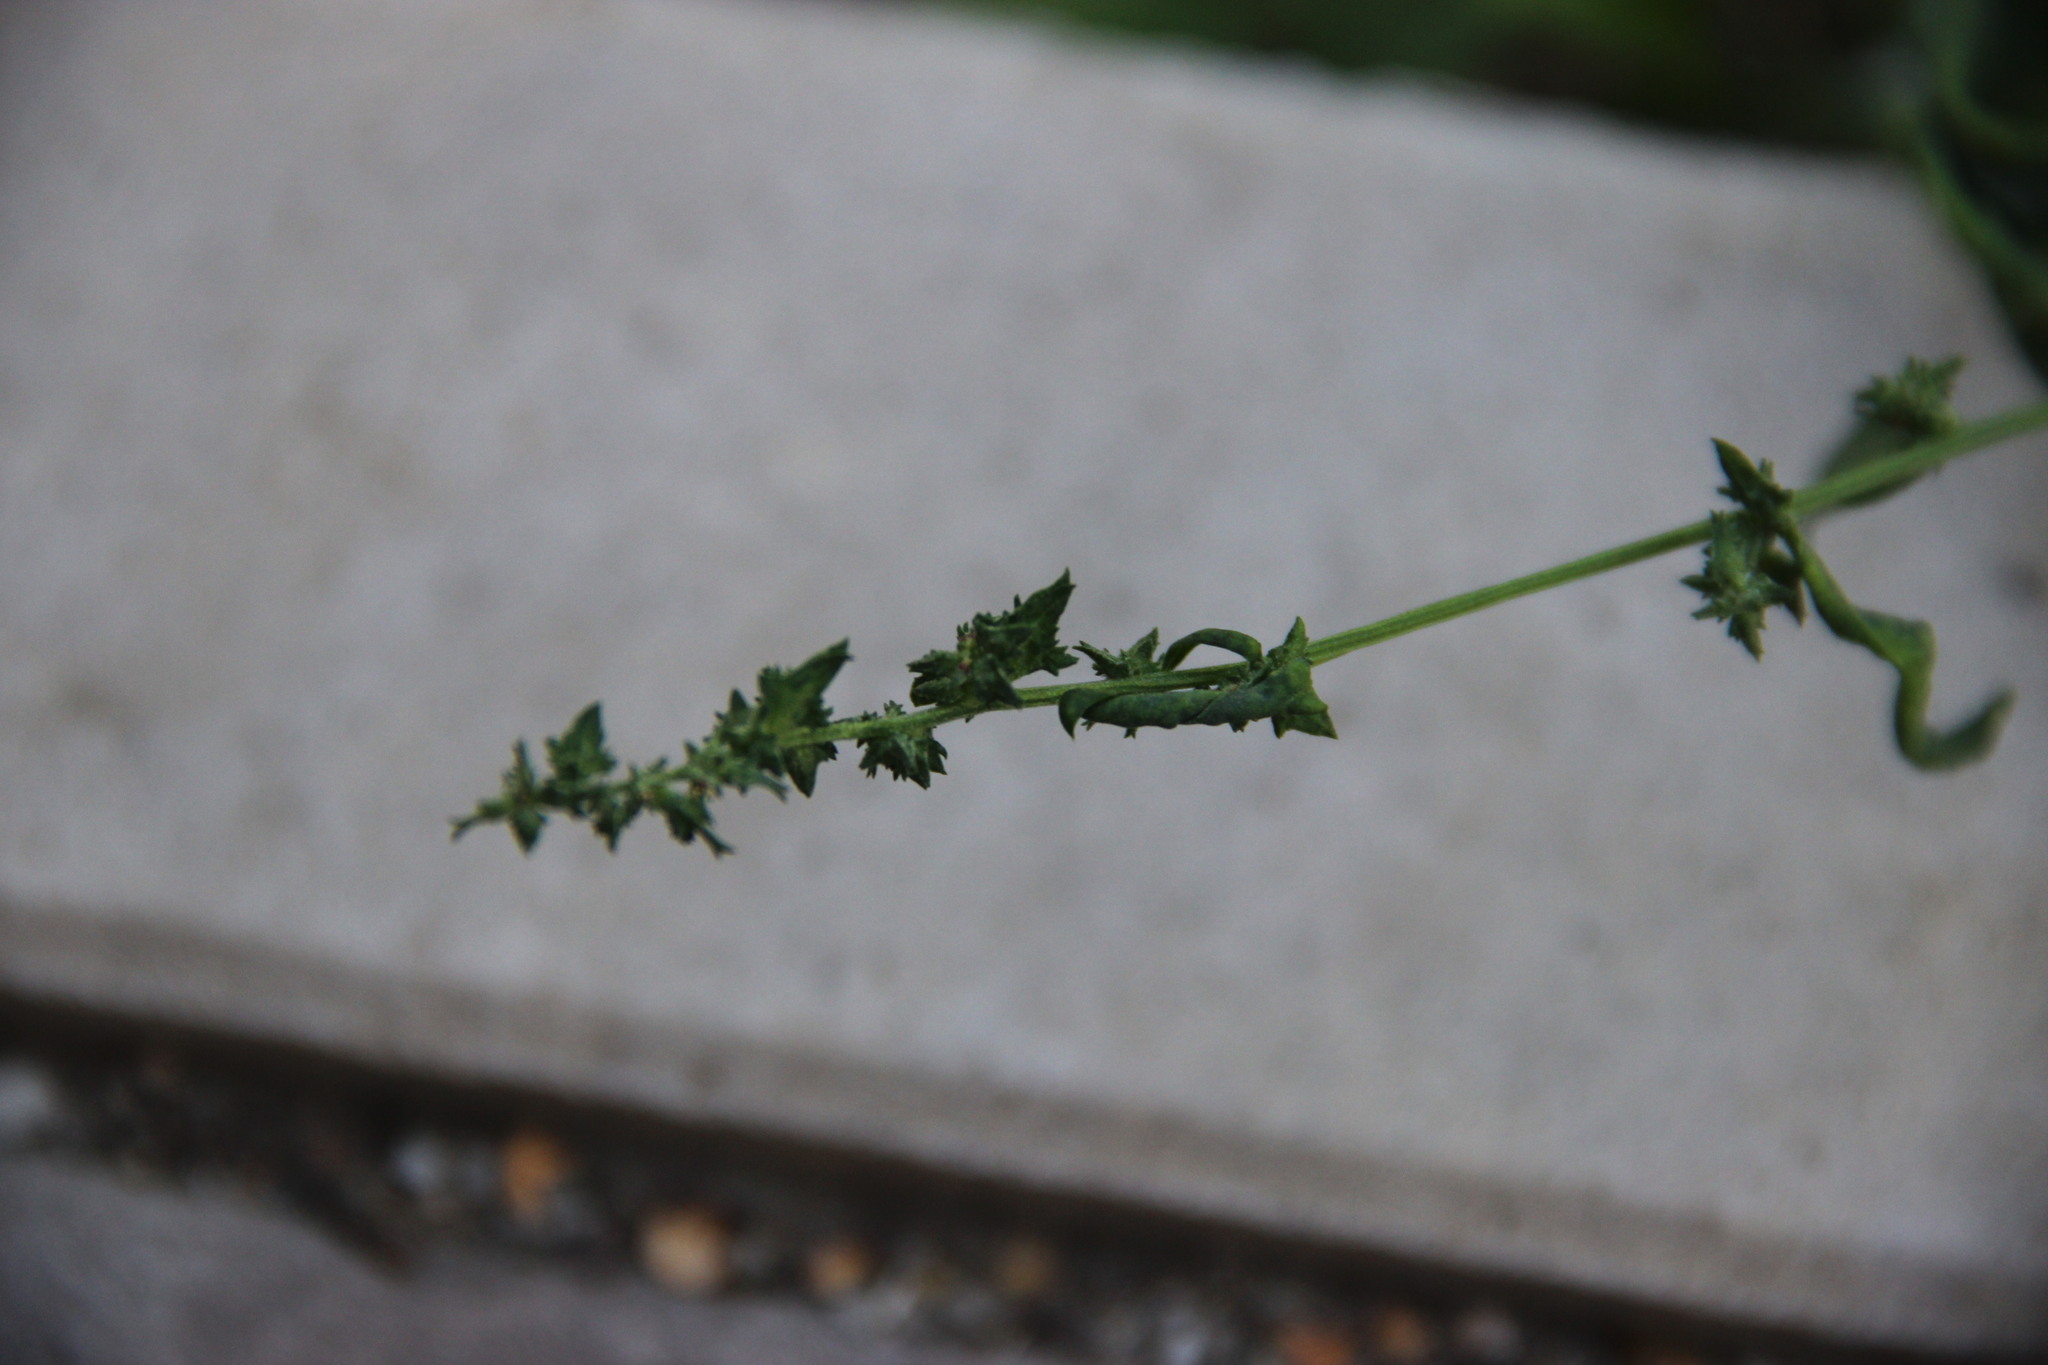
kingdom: Plantae
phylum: Tracheophyta
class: Magnoliopsida
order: Caryophyllales
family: Amaranthaceae
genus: Atriplex
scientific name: Atriplex patula
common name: Common orache
